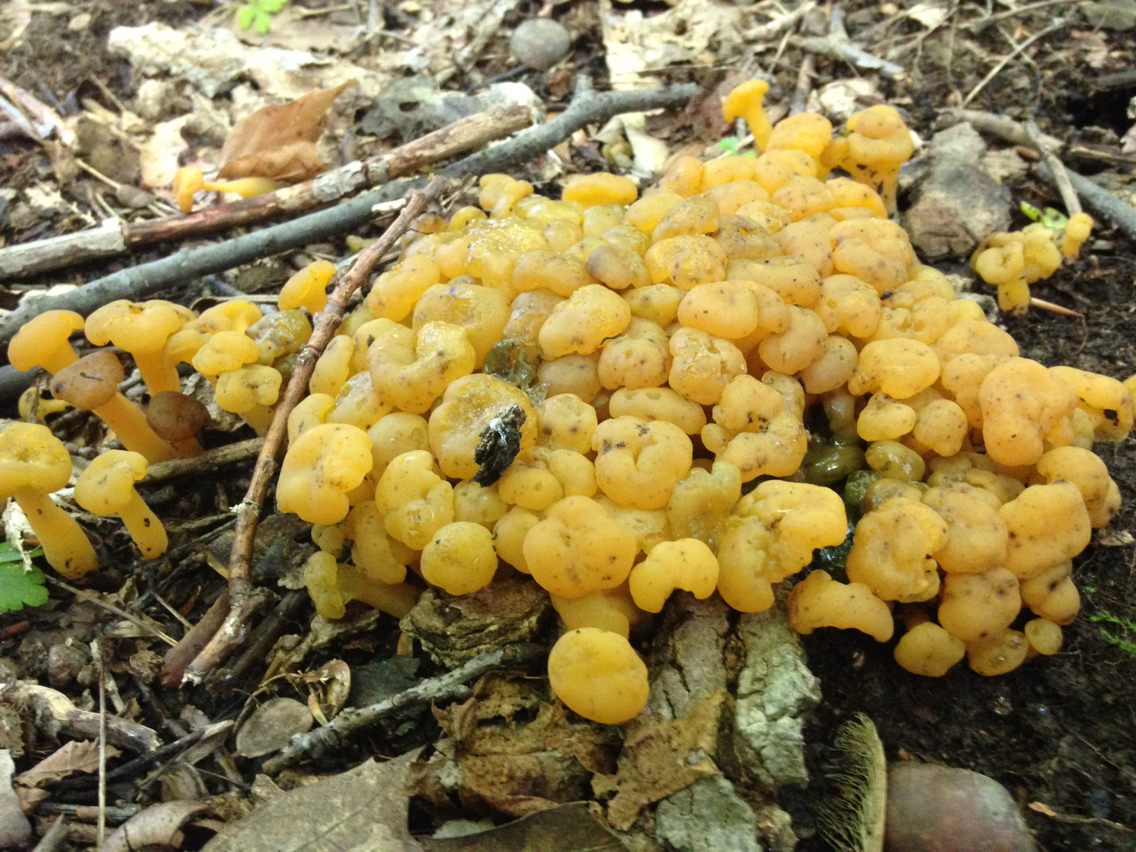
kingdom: Fungi
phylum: Ascomycota
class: Leotiomycetes
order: Leotiales
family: Leotiaceae
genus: Leotia
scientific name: Leotia lubrica
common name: Jellybaby
